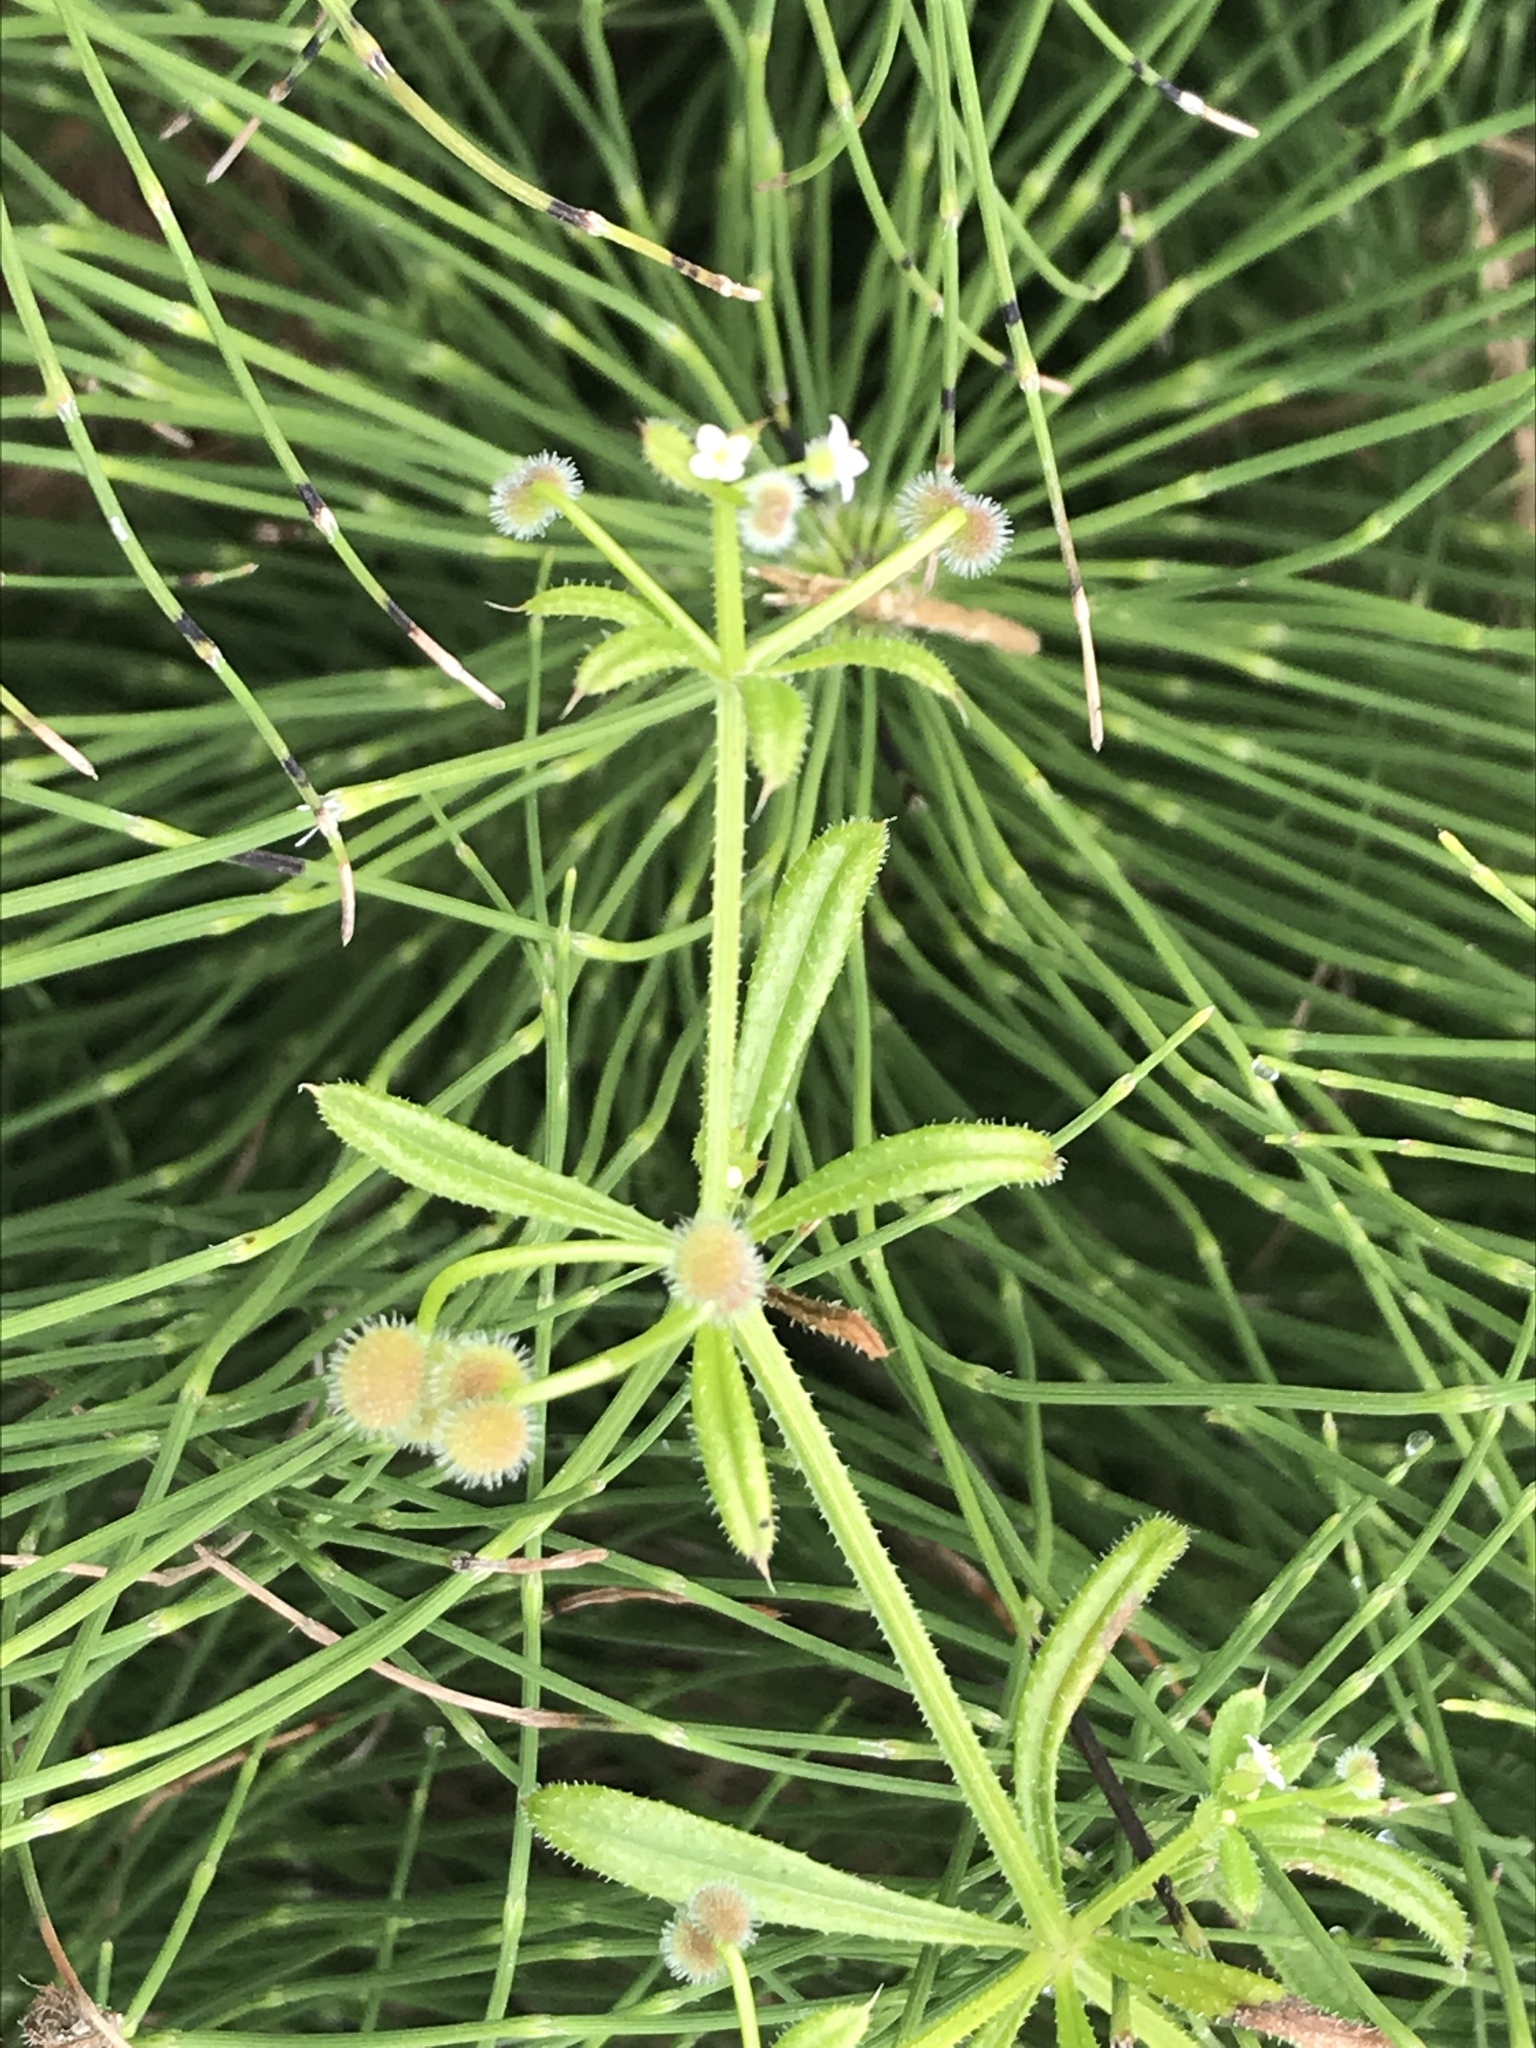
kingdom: Plantae
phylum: Tracheophyta
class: Magnoliopsida
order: Gentianales
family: Rubiaceae
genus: Galium
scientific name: Galium aparine
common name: Cleavers
